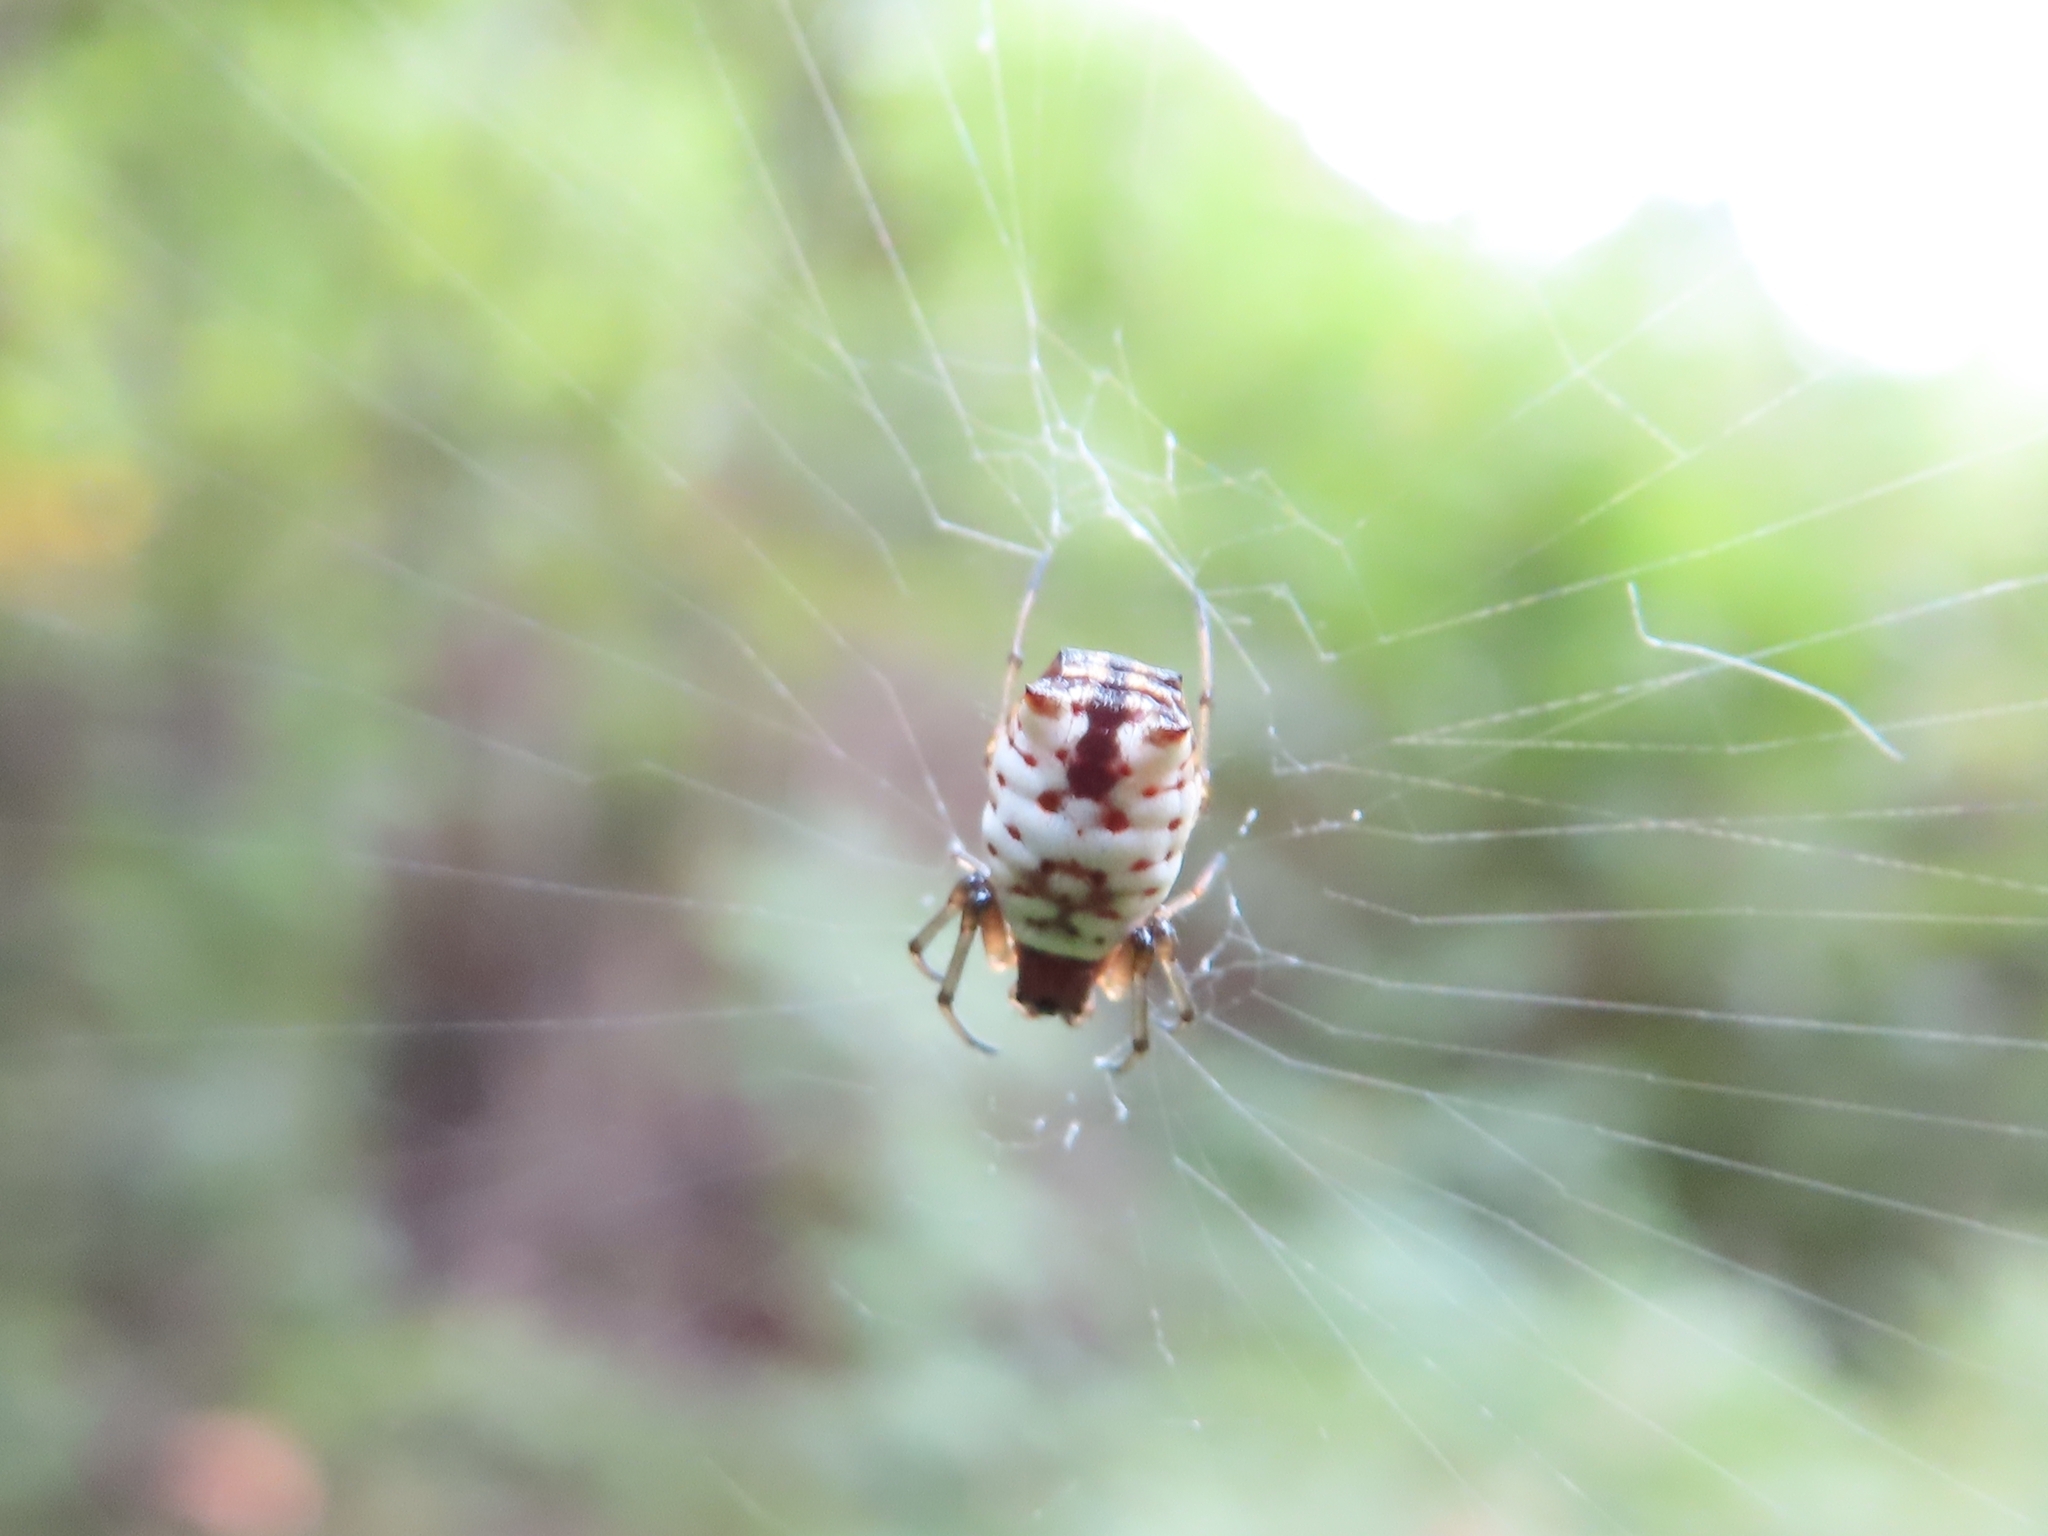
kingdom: Animalia
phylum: Arthropoda
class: Arachnida
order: Araneae
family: Araneidae
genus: Micrathena
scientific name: Micrathena mitrata
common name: Orb weavers
